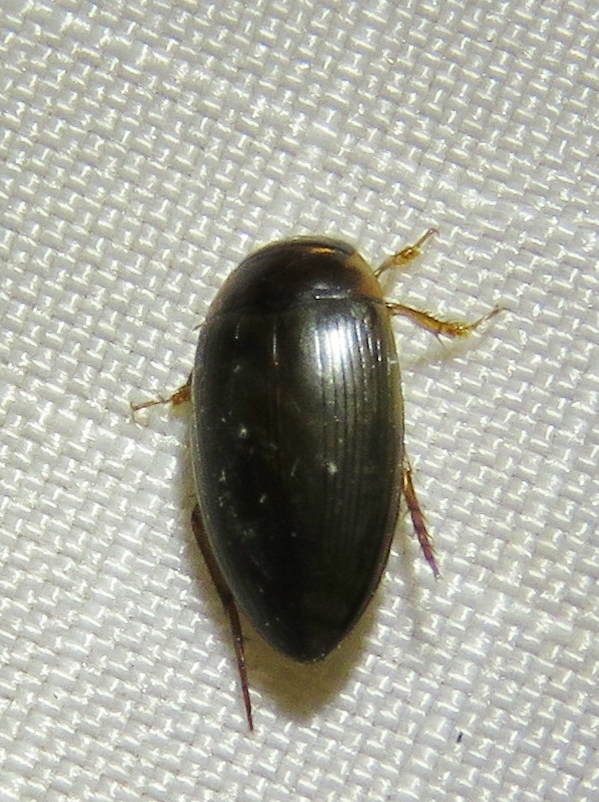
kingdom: Animalia
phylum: Arthropoda
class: Insecta
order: Coleoptera
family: Dytiscidae
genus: Copelatus
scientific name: Copelatus chevrolati
